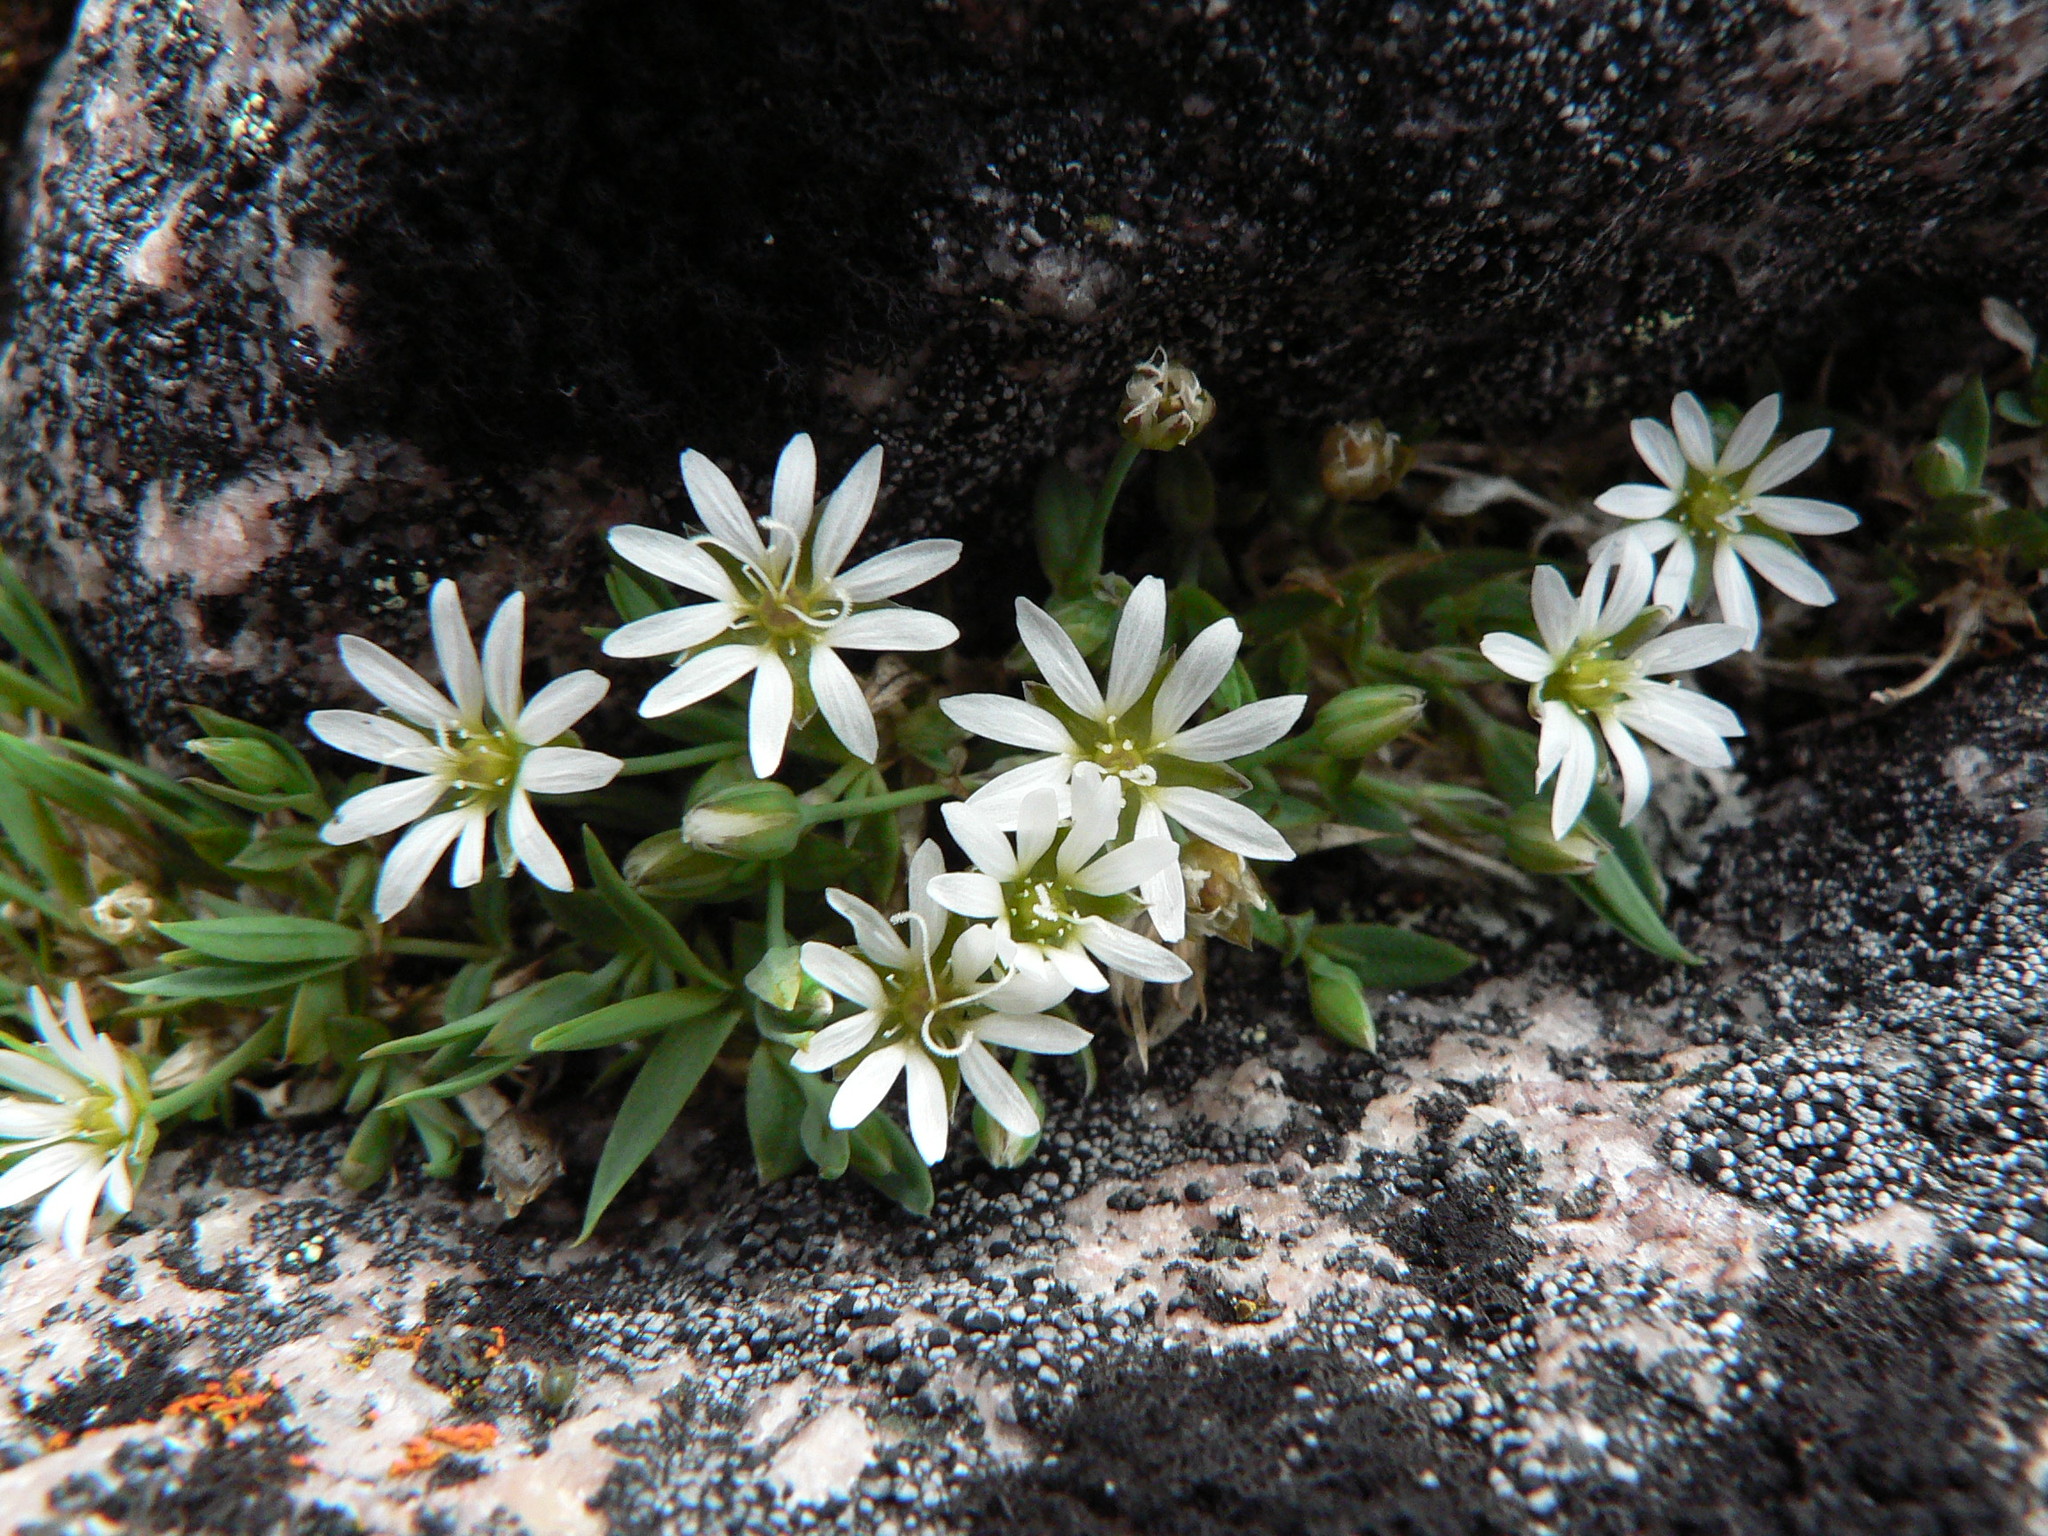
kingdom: Plantae
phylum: Tracheophyta
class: Magnoliopsida
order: Caryophyllales
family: Caryophyllaceae
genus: Stellaria
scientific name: Stellaria longipes
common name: Goldie's starwort
